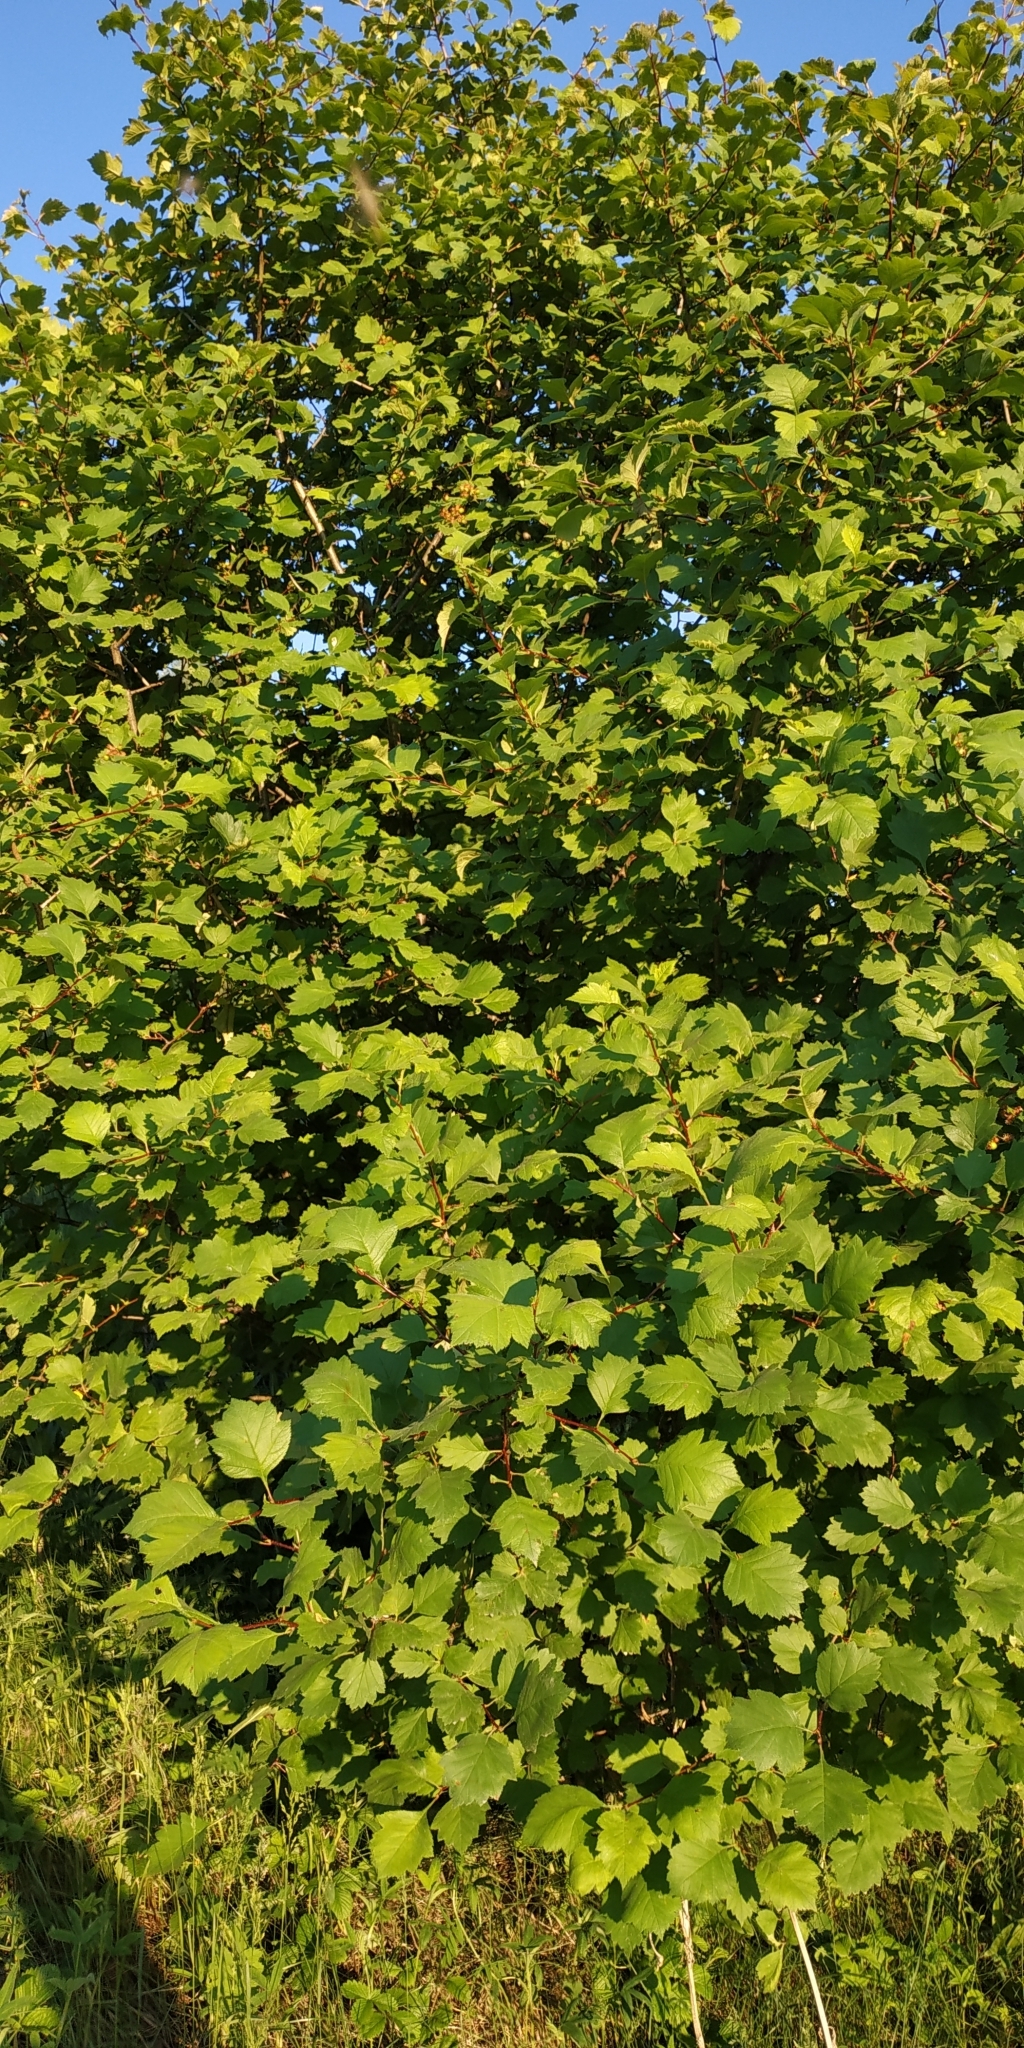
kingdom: Plantae
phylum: Tracheophyta
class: Magnoliopsida
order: Rosales
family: Rosaceae
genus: Crataegus
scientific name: Crataegus sanguinea
